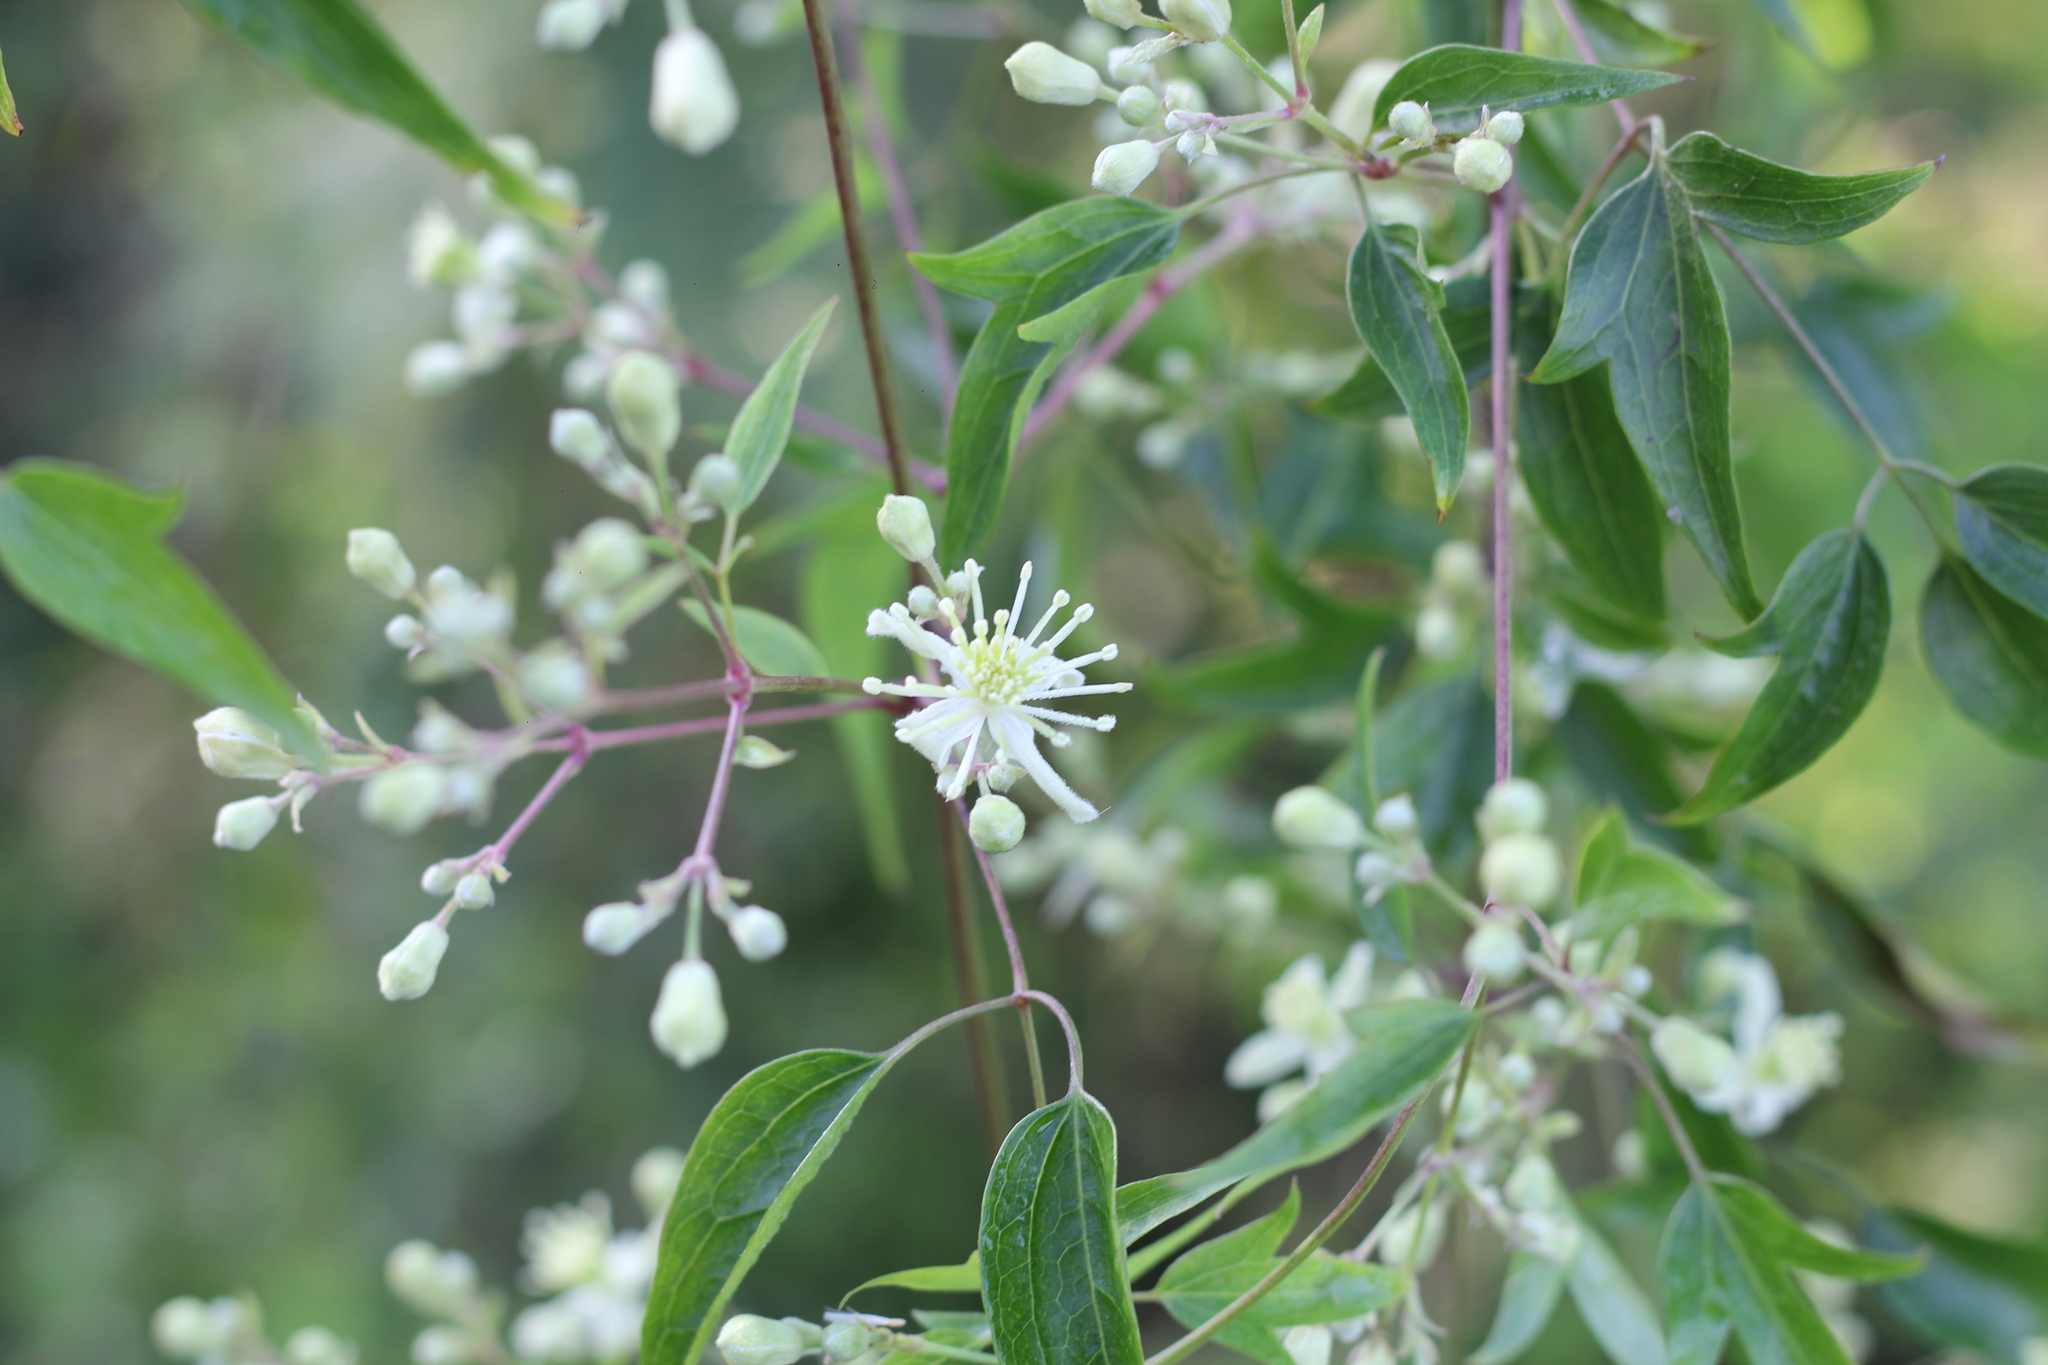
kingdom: Plantae
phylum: Tracheophyta
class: Magnoliopsida
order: Ranunculales
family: Ranunculaceae
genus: Clematis
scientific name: Clematis montevidensis
